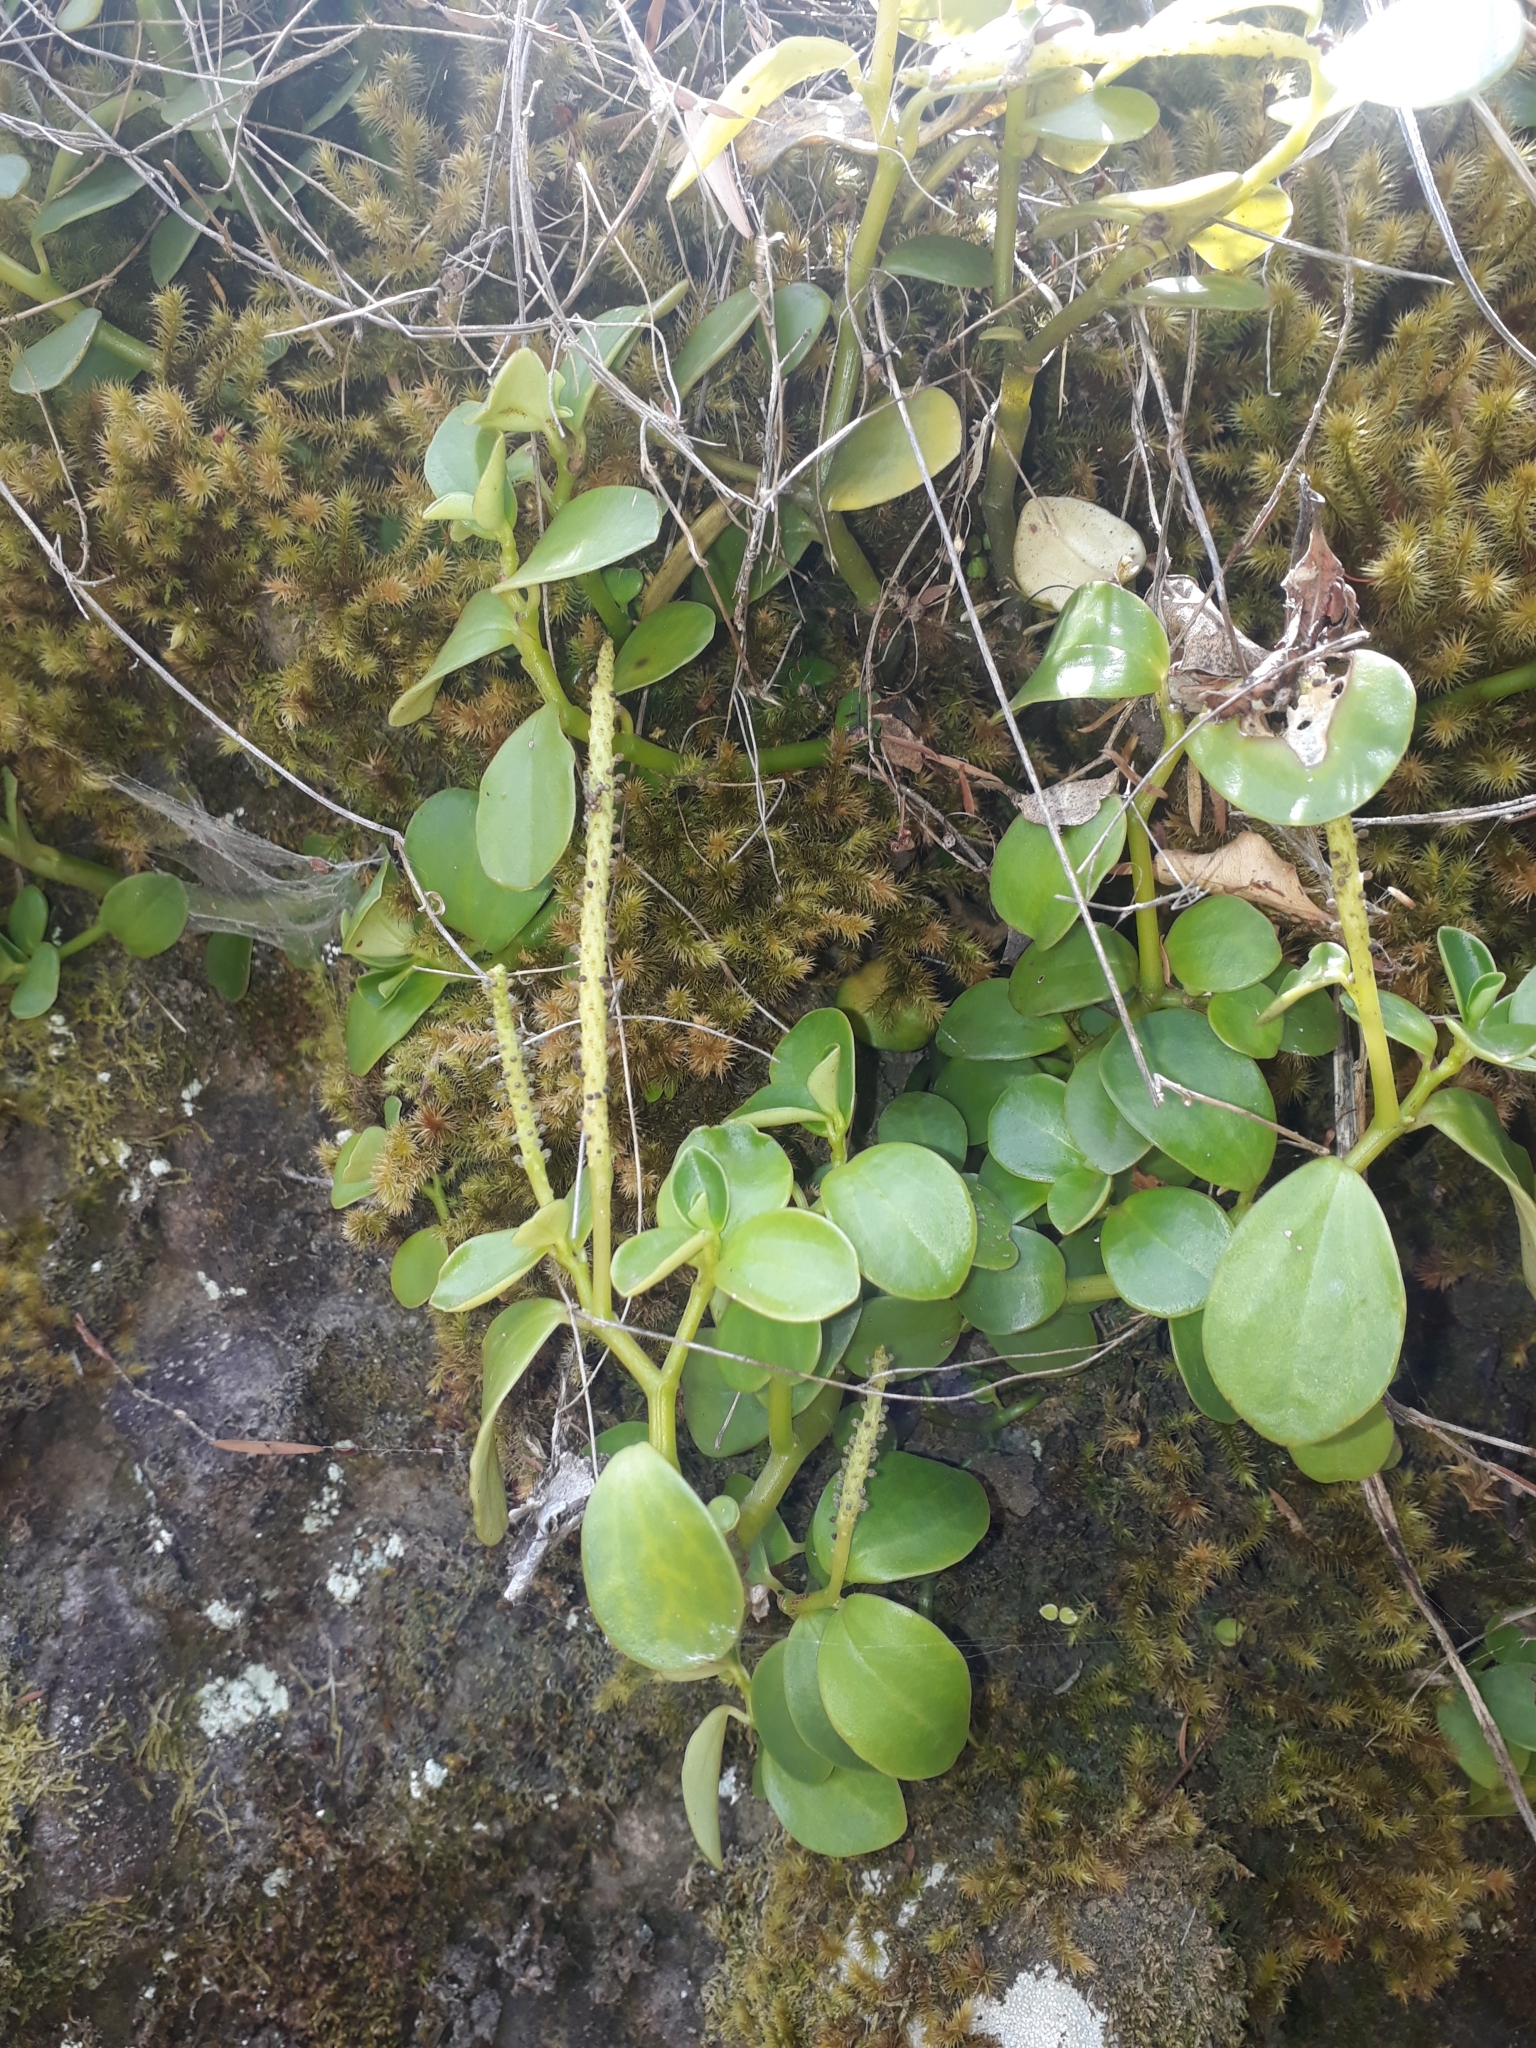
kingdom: Plantae
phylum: Tracheophyta
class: Magnoliopsida
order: Piperales
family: Piperaceae
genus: Peperomia
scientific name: Peperomia urvilleana
